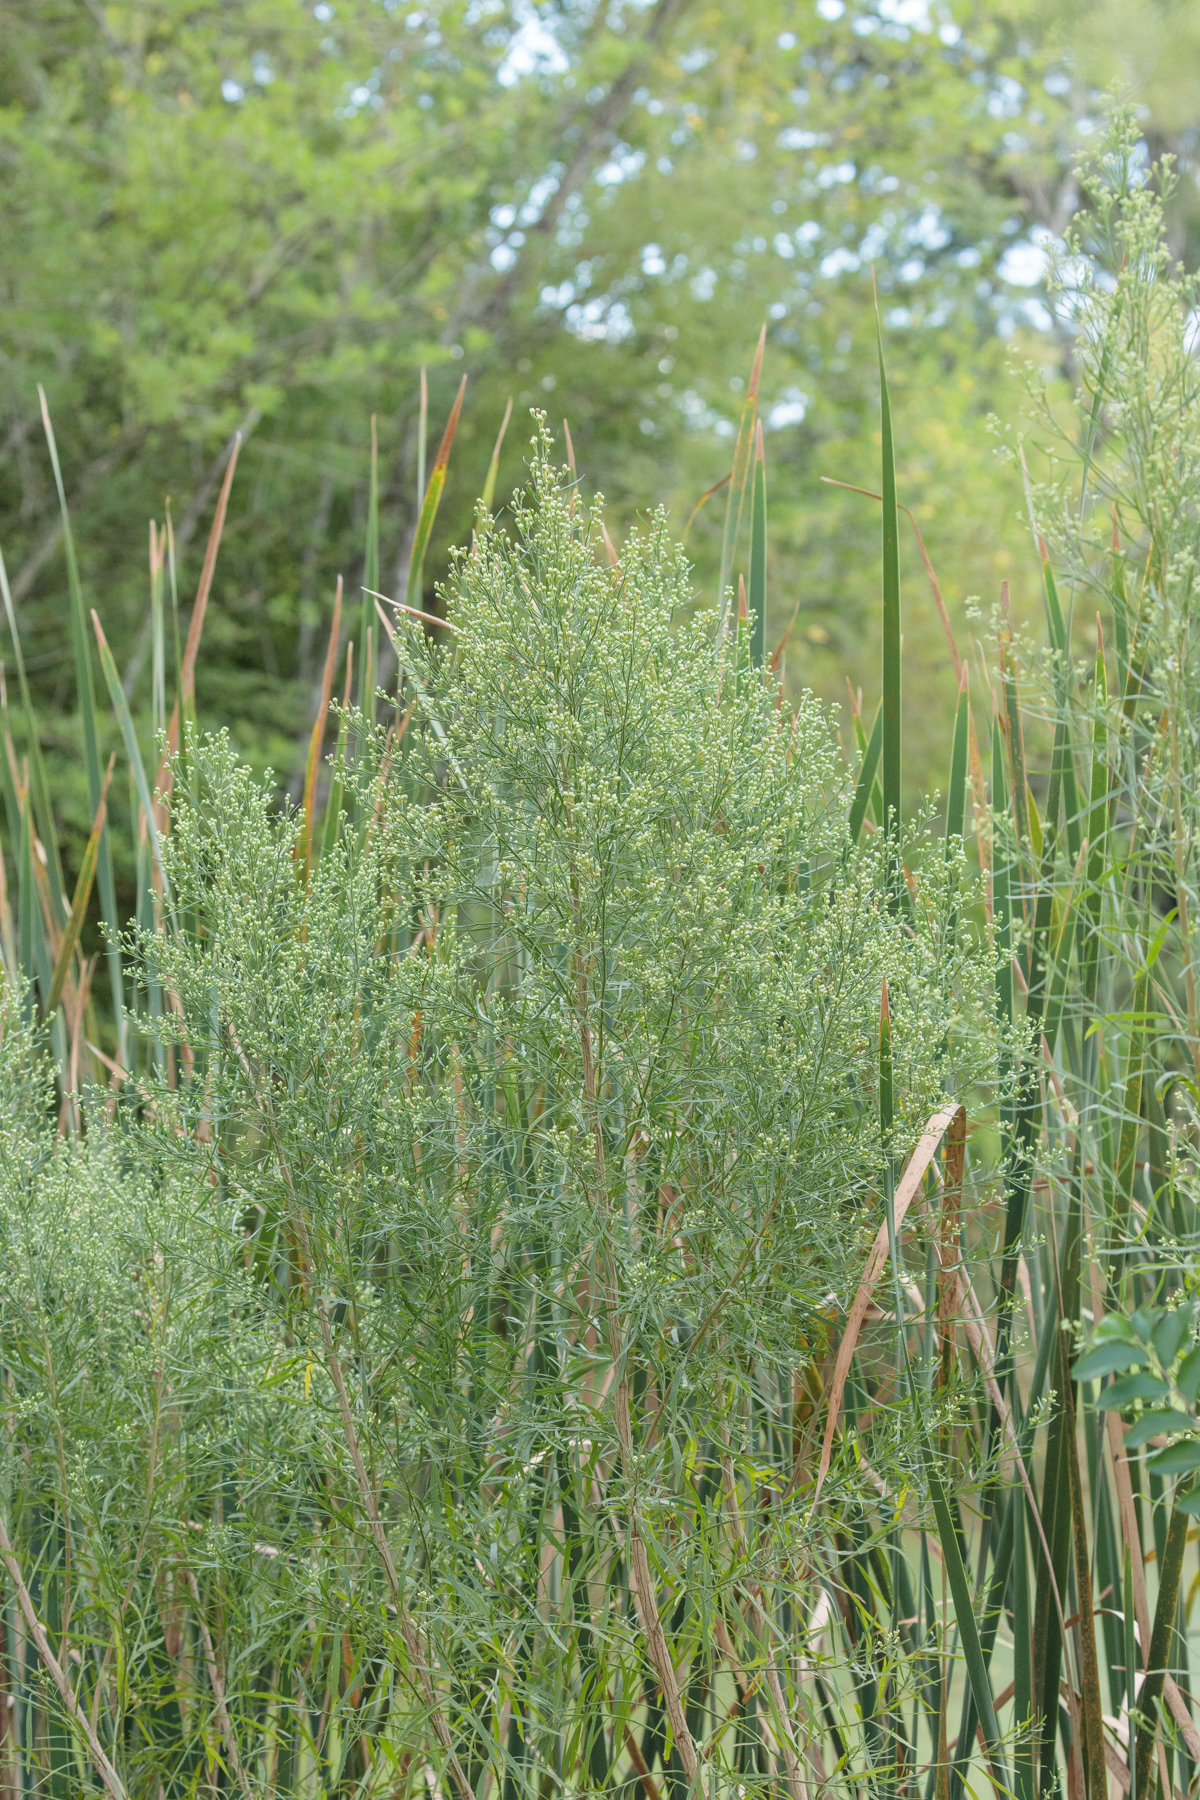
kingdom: Plantae
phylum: Tracheophyta
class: Magnoliopsida
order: Asterales
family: Asteraceae
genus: Erigeron
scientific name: Erigeron canadensis
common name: Canadian fleabane
